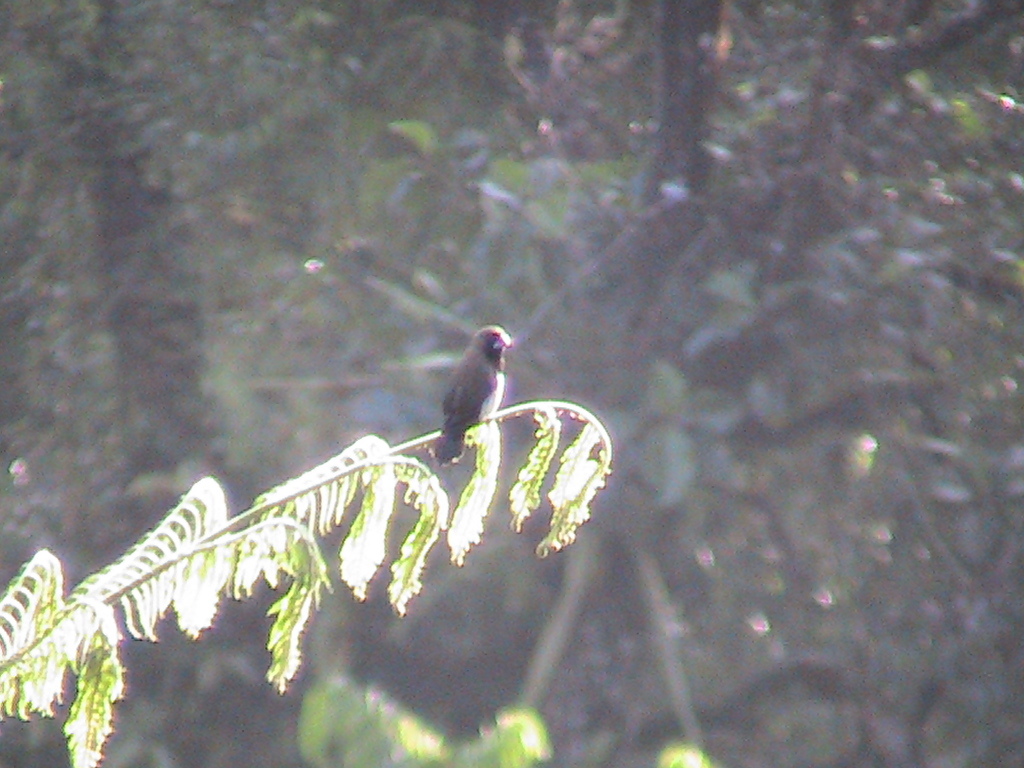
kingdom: Animalia
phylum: Chordata
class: Aves
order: Passeriformes
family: Estrildidae
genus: Lonchura
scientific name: Lonchura leucogastroides
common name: Javan munia
